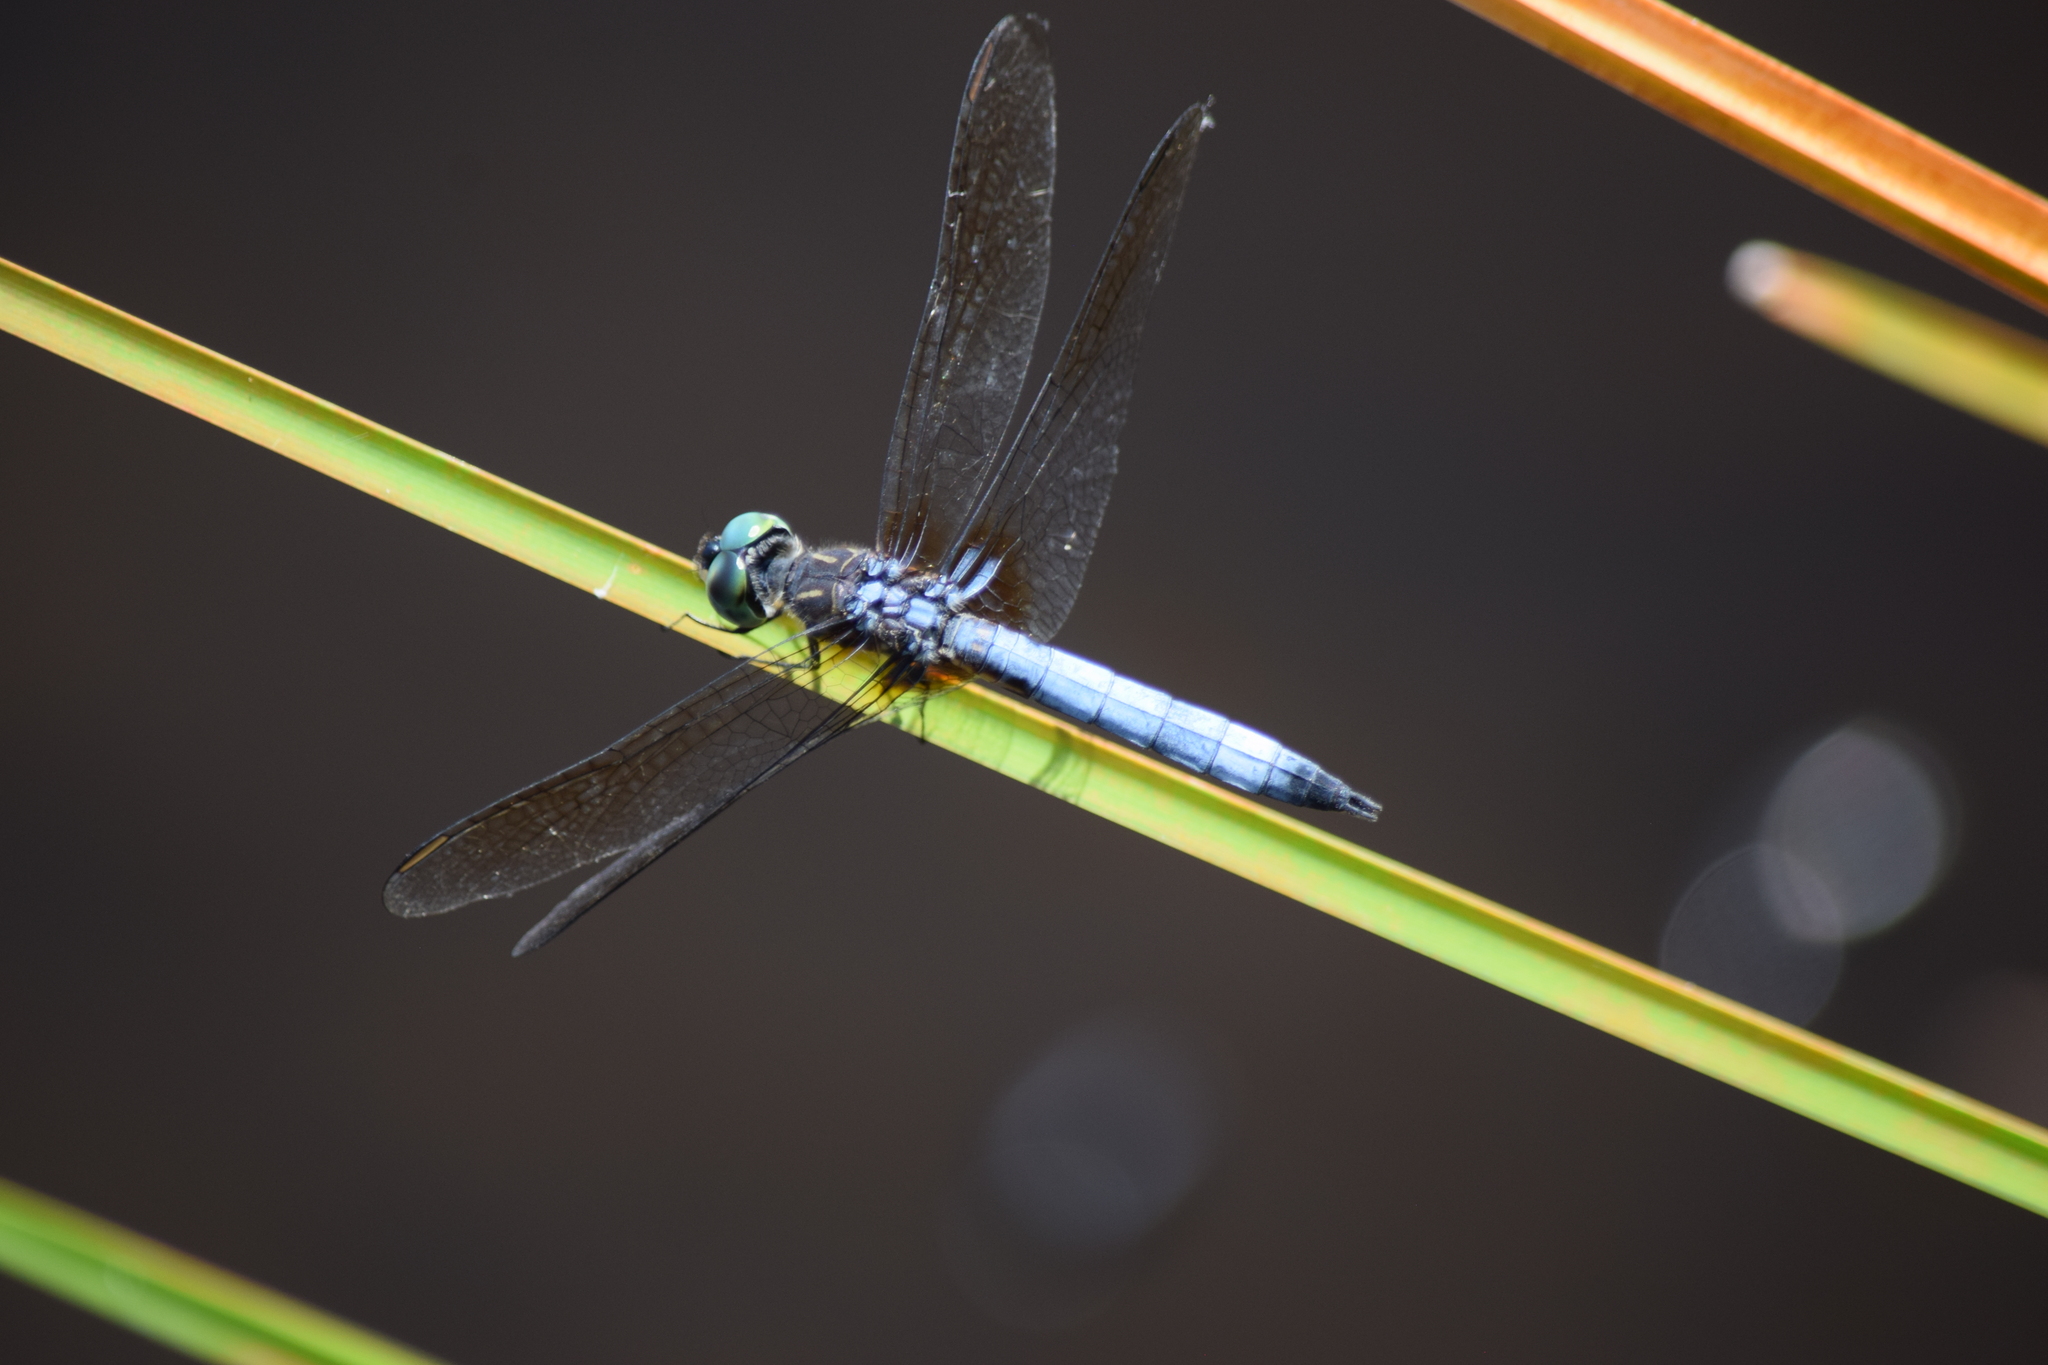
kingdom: Animalia
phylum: Arthropoda
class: Insecta
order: Odonata
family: Libellulidae
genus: Pachydiplax
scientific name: Pachydiplax longipennis
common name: Blue dasher
